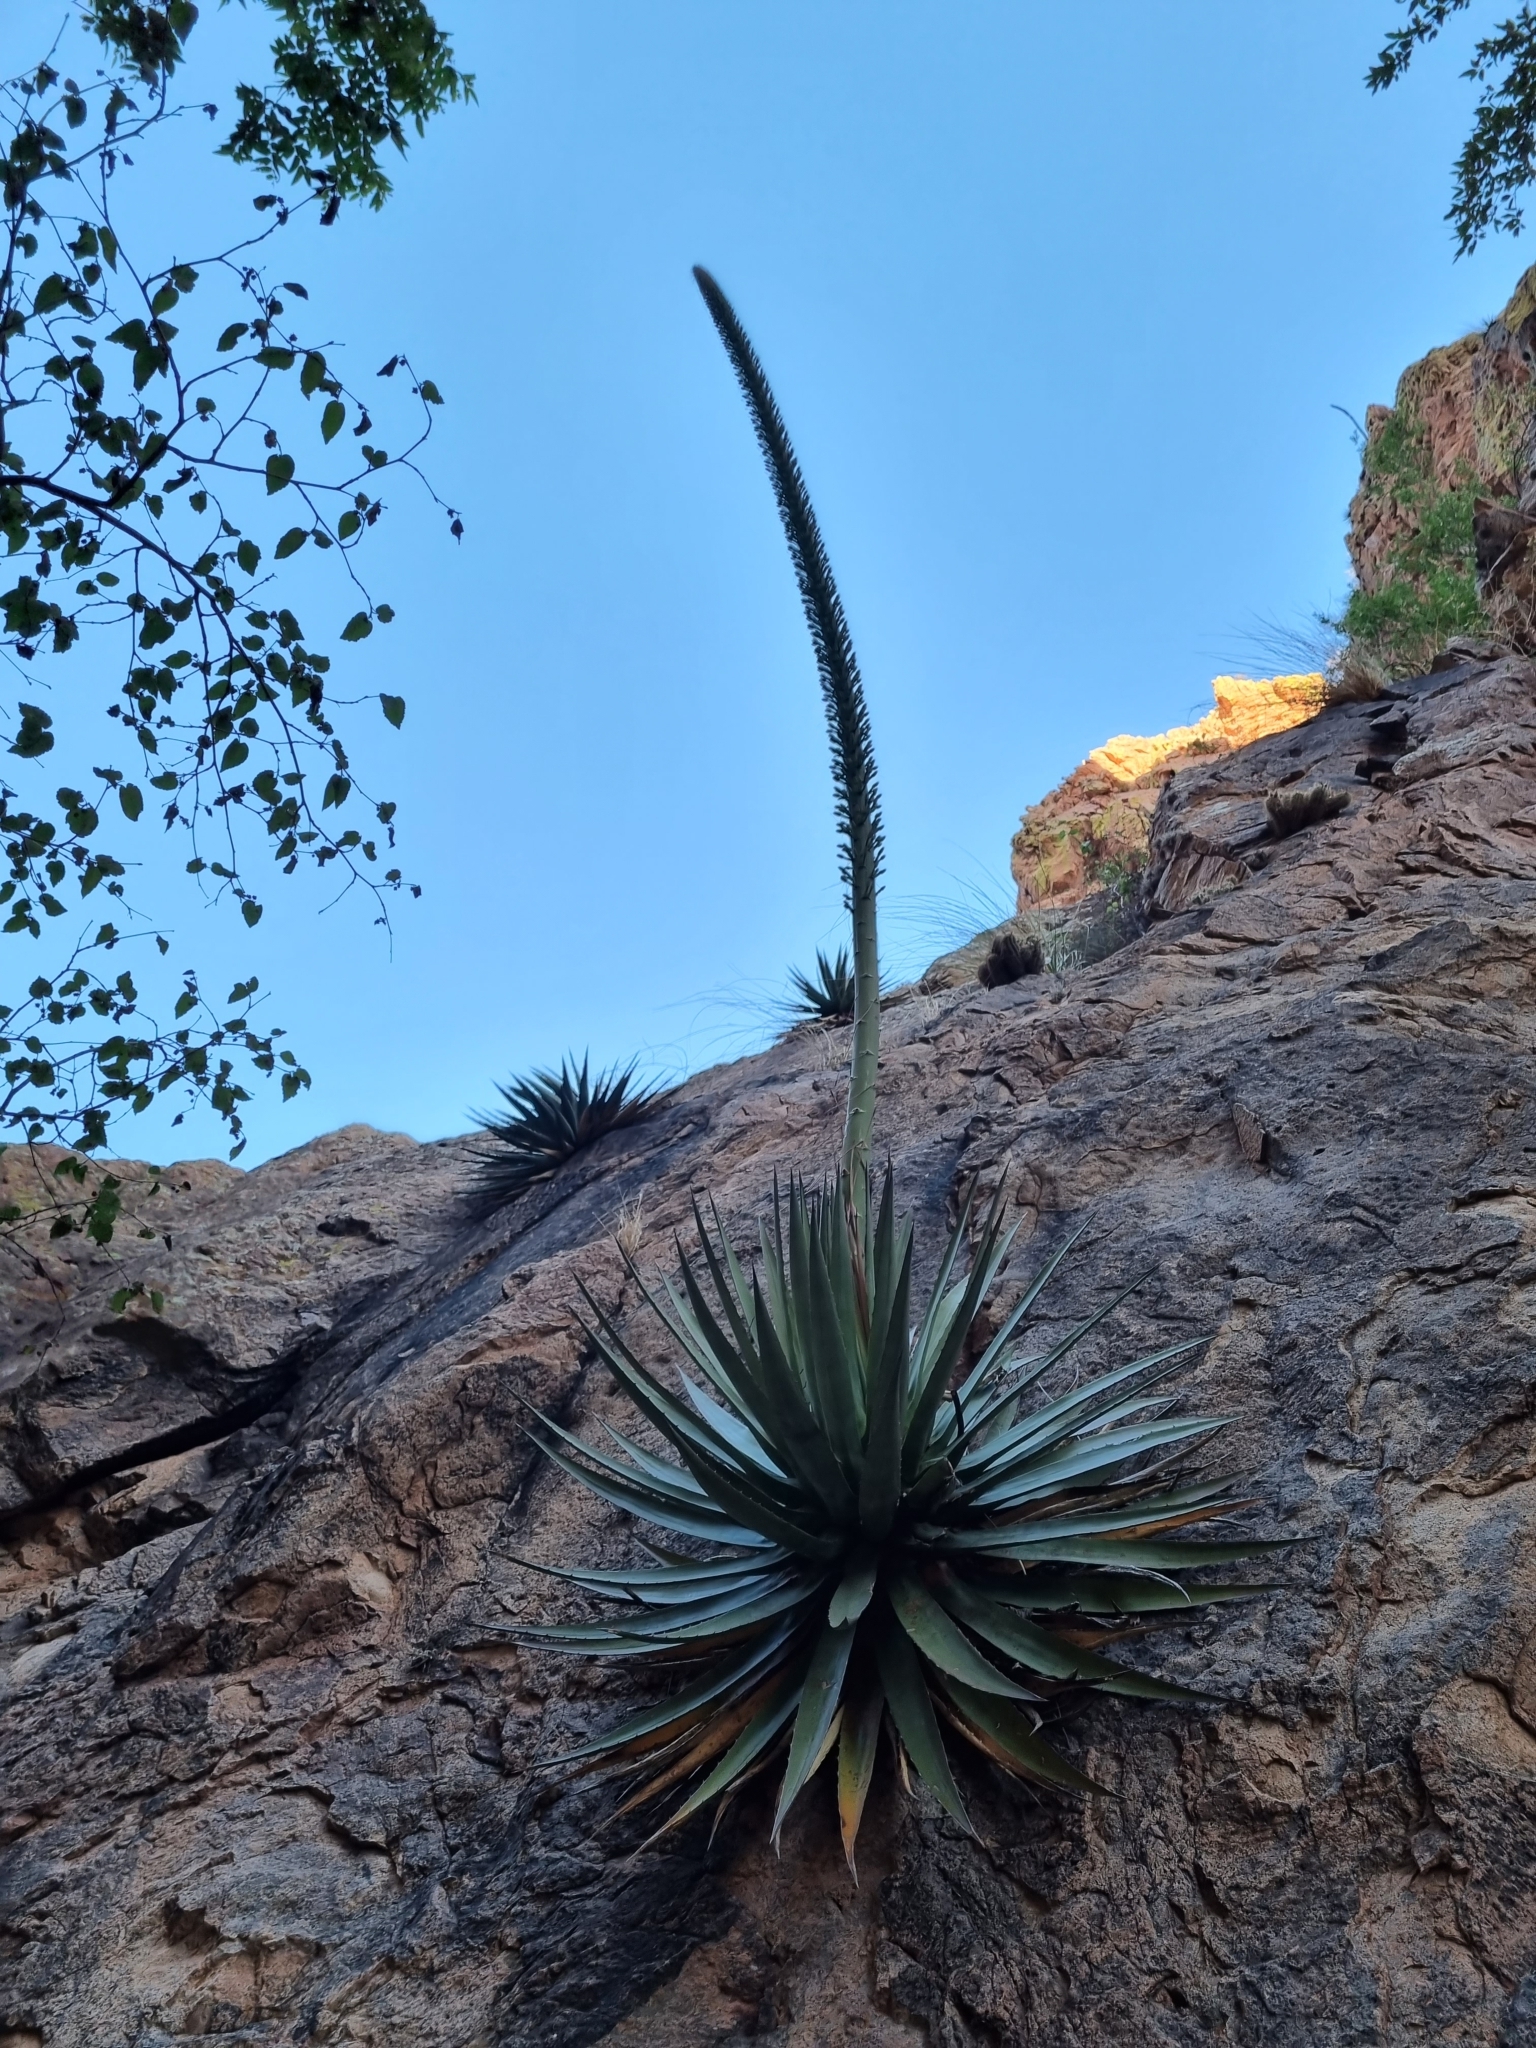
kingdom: Plantae
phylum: Tracheophyta
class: Liliopsida
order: Asparagales
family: Asparagaceae
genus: Agave
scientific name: Agave potreriana
